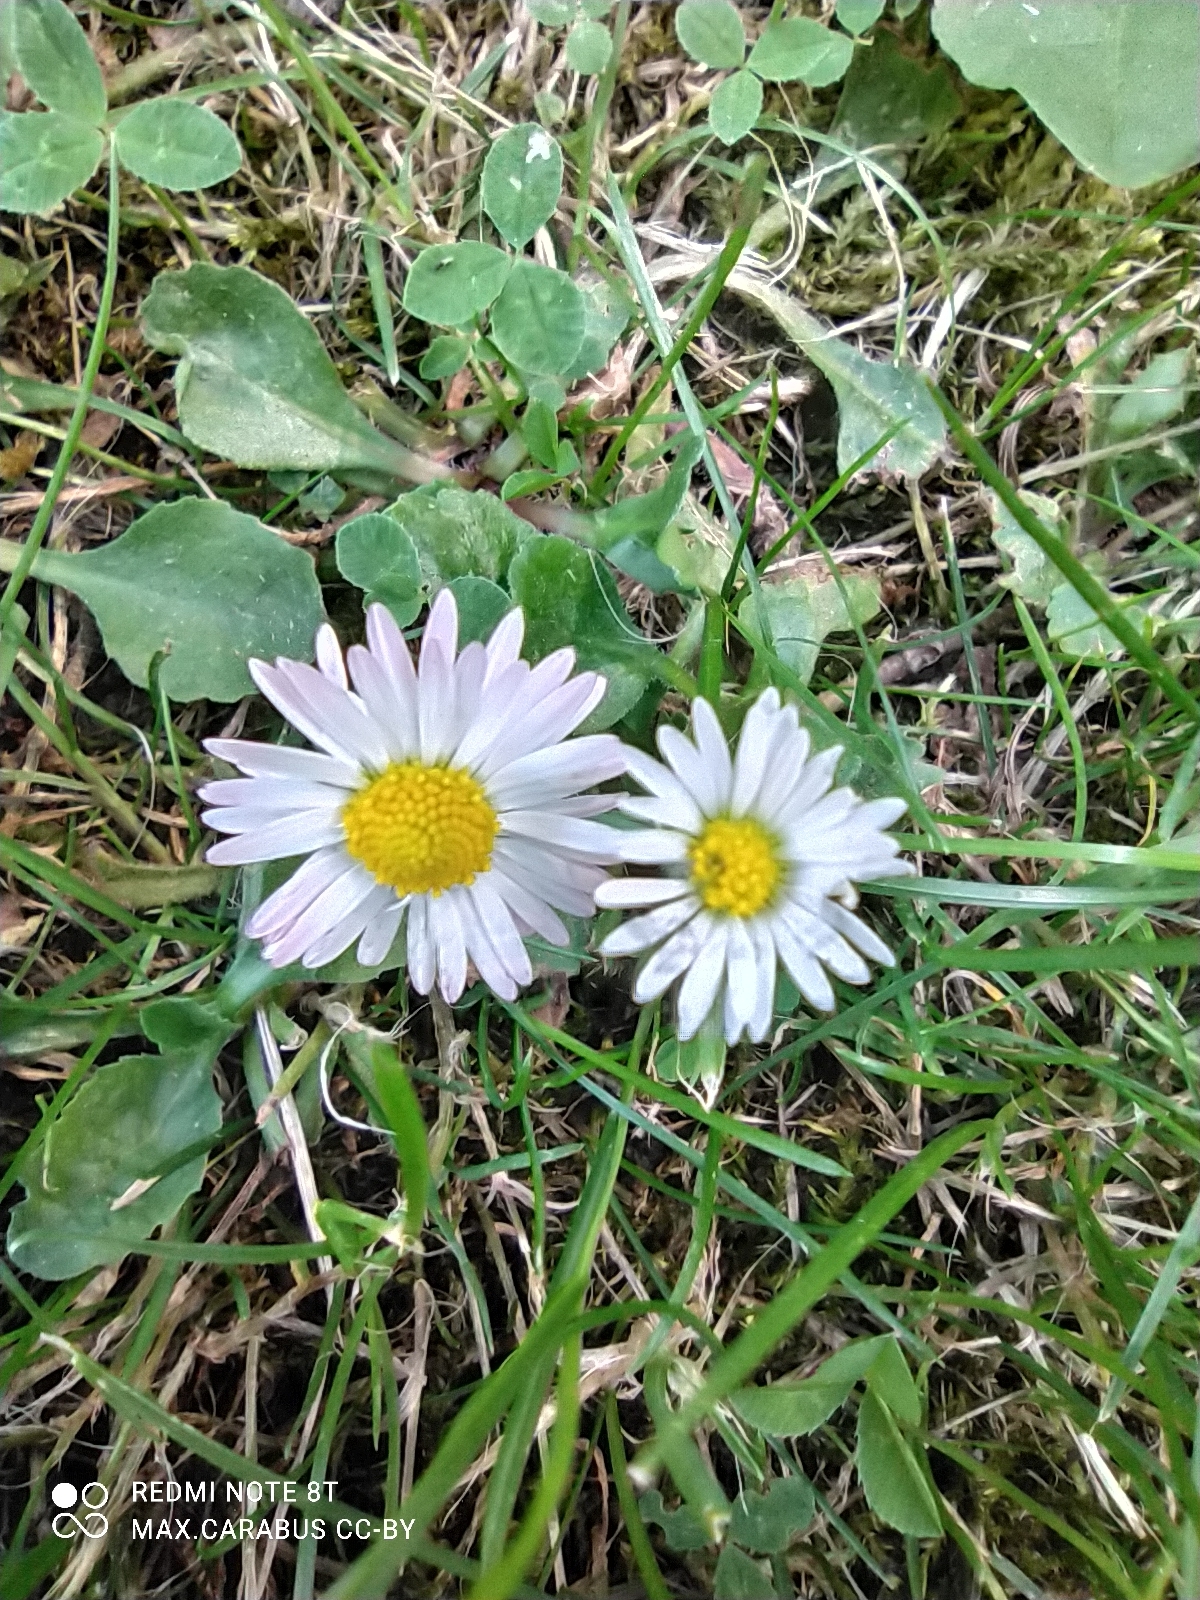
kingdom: Plantae
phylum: Tracheophyta
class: Magnoliopsida
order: Asterales
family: Asteraceae
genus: Bellis
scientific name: Bellis perennis
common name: Lawndaisy
